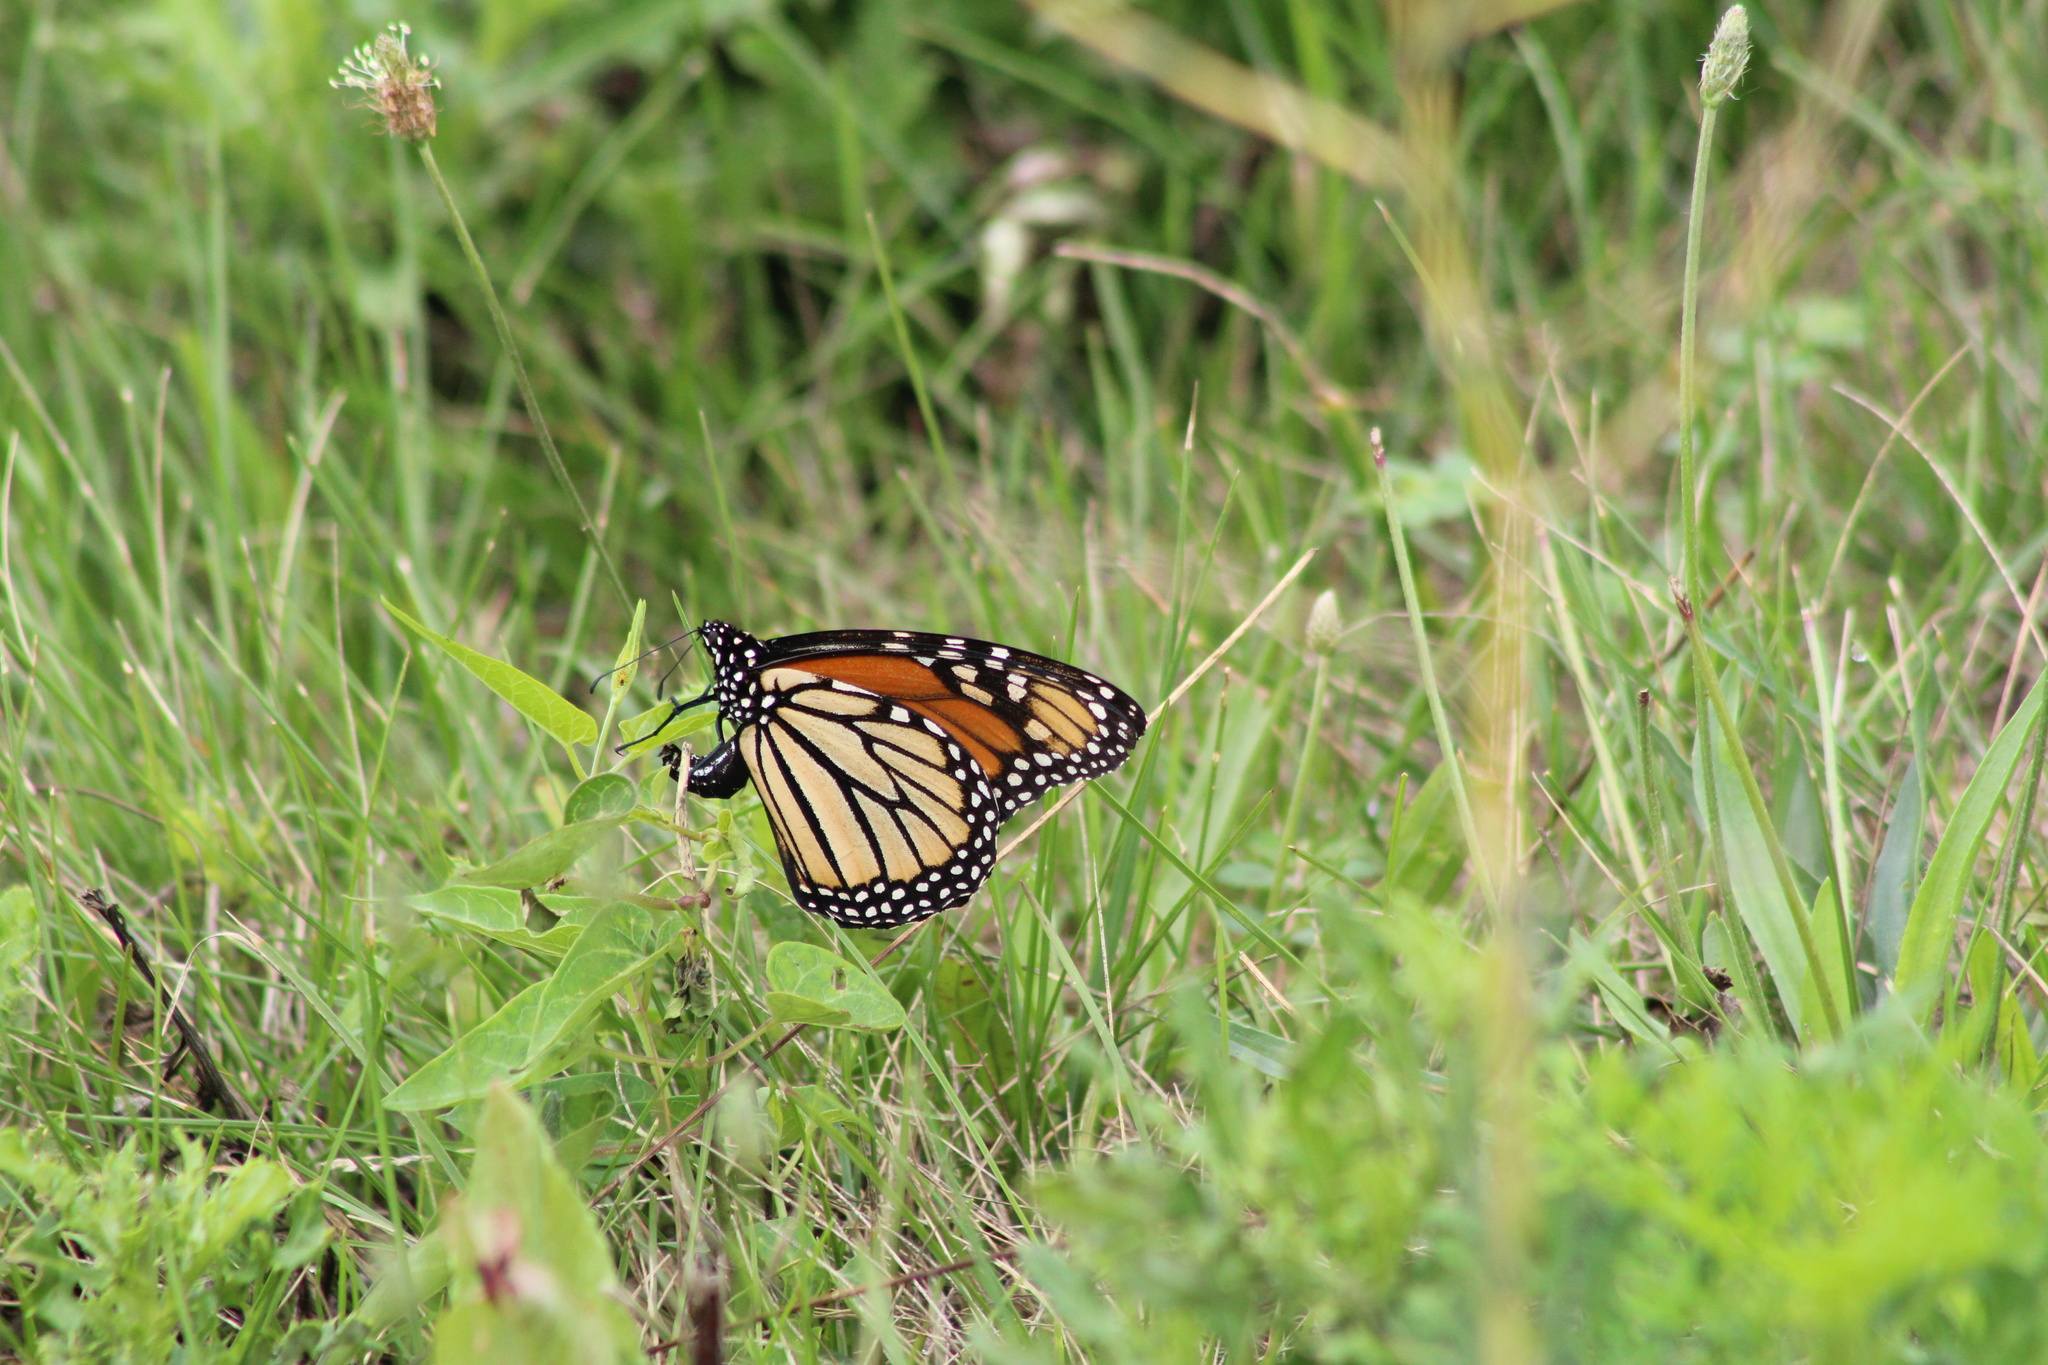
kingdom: Animalia
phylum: Arthropoda
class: Insecta
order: Lepidoptera
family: Nymphalidae
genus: Danaus
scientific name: Danaus plexippus
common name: Monarch
